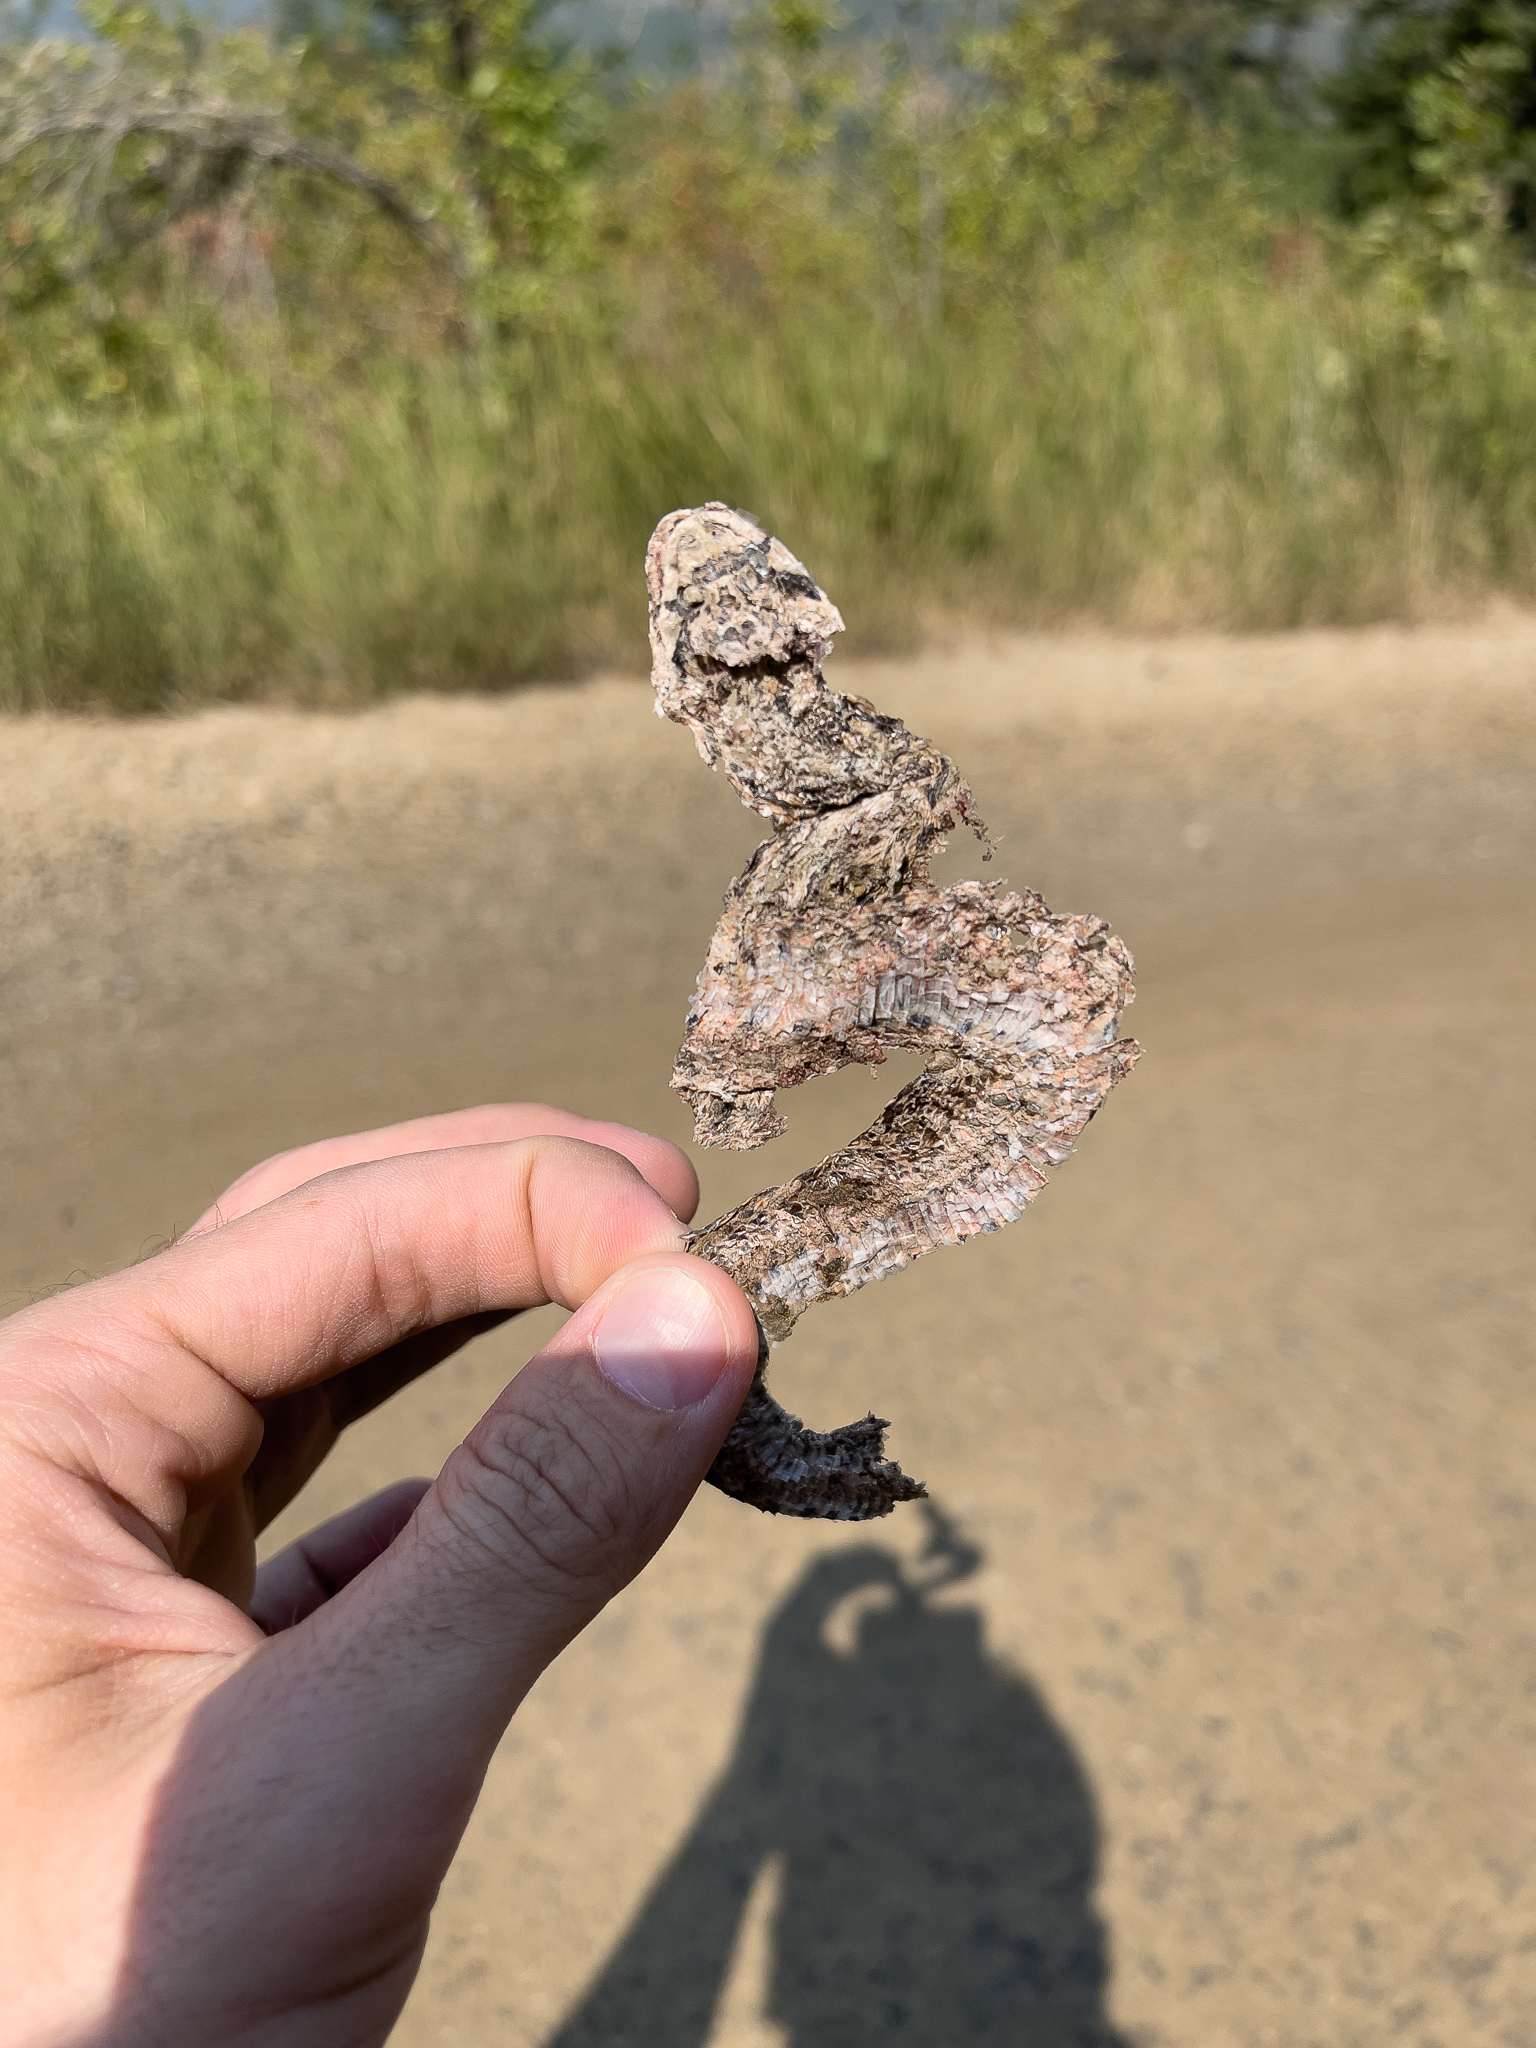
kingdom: Animalia
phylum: Chordata
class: Squamata
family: Colubridae
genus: Pituophis
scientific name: Pituophis catenifer
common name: Gopher snake
